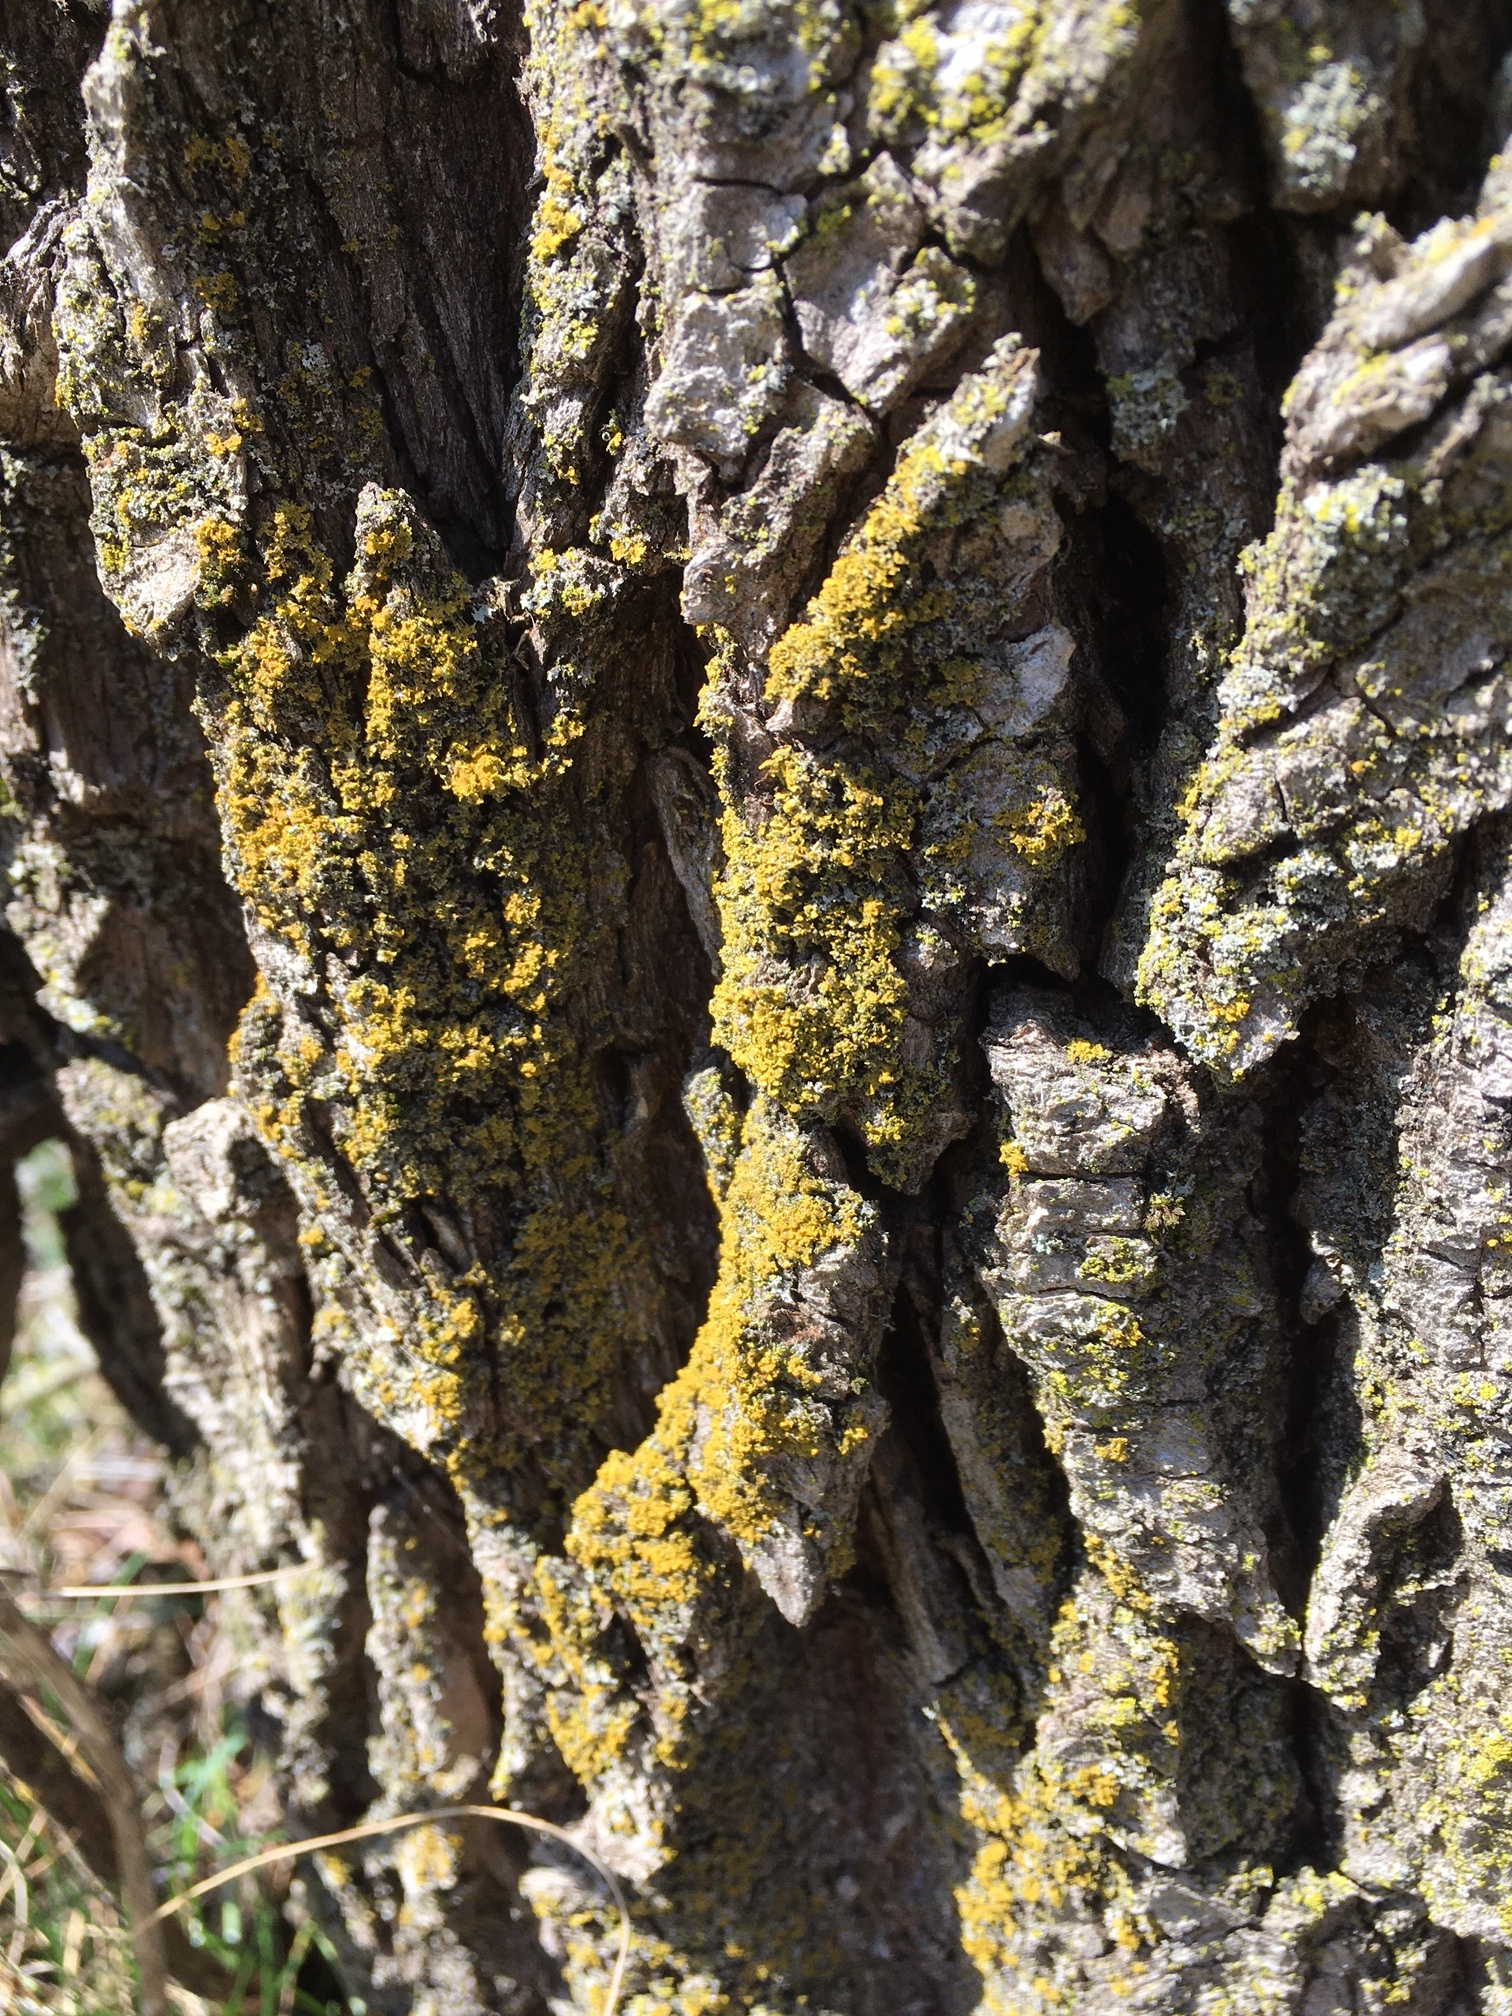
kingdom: Fungi
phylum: Ascomycota
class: Candelariomycetes
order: Candelariales
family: Candelariaceae
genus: Candelaria
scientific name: Candelaria concolor
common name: Candleflame lichen
